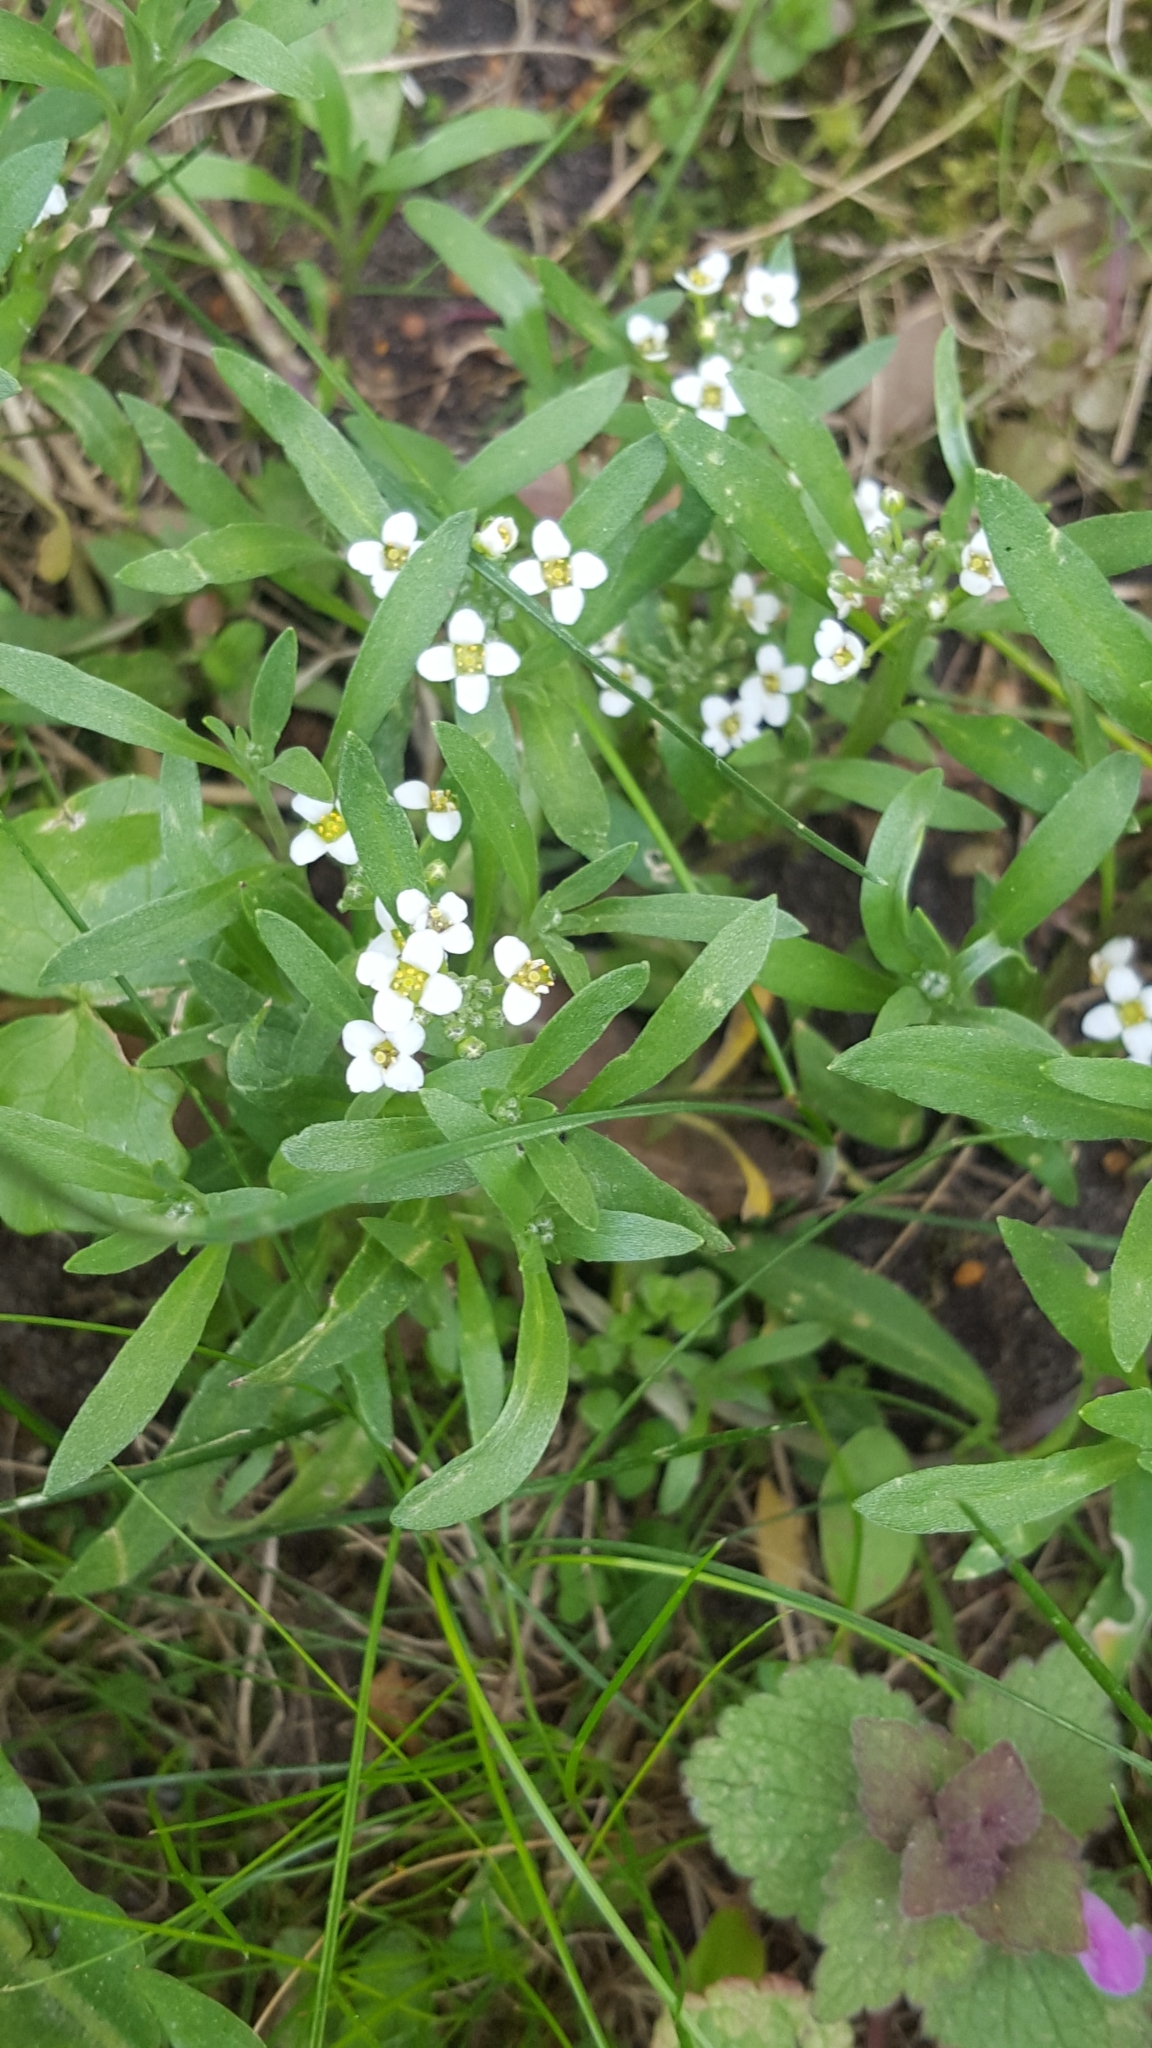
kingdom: Plantae
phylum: Tracheophyta
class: Magnoliopsida
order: Brassicales
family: Brassicaceae
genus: Lobularia
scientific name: Lobularia maritima
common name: Sweet alison
